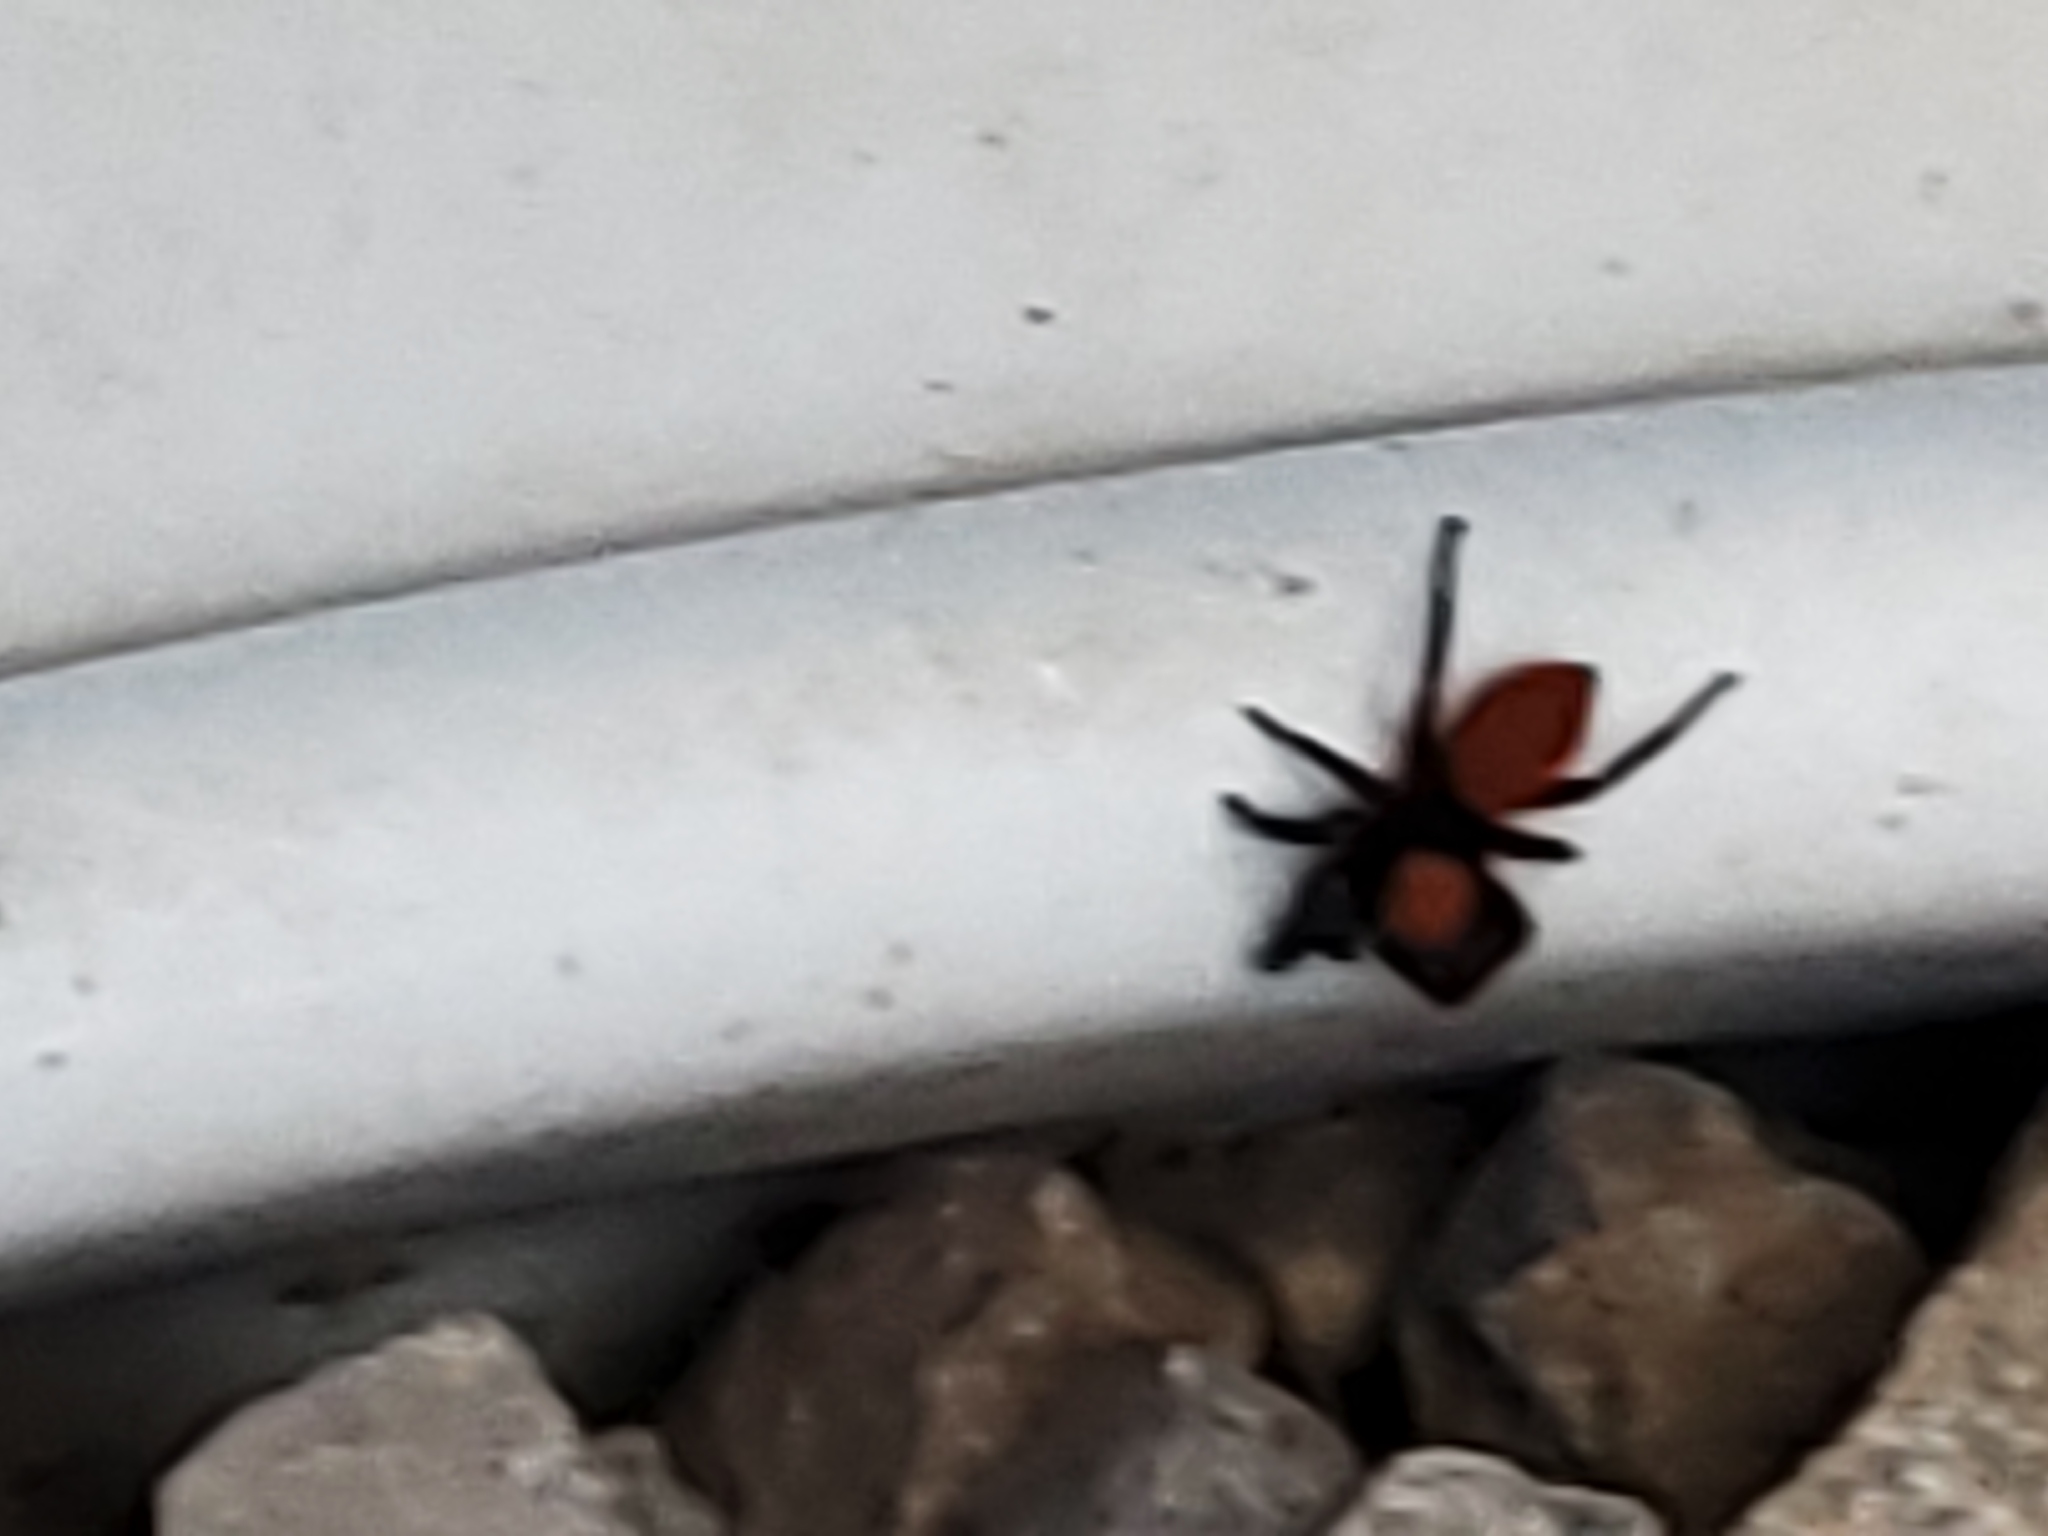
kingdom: Animalia
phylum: Arthropoda
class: Arachnida
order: Araneae
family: Salticidae
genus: Phidippus
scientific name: Phidippus apacheanus
